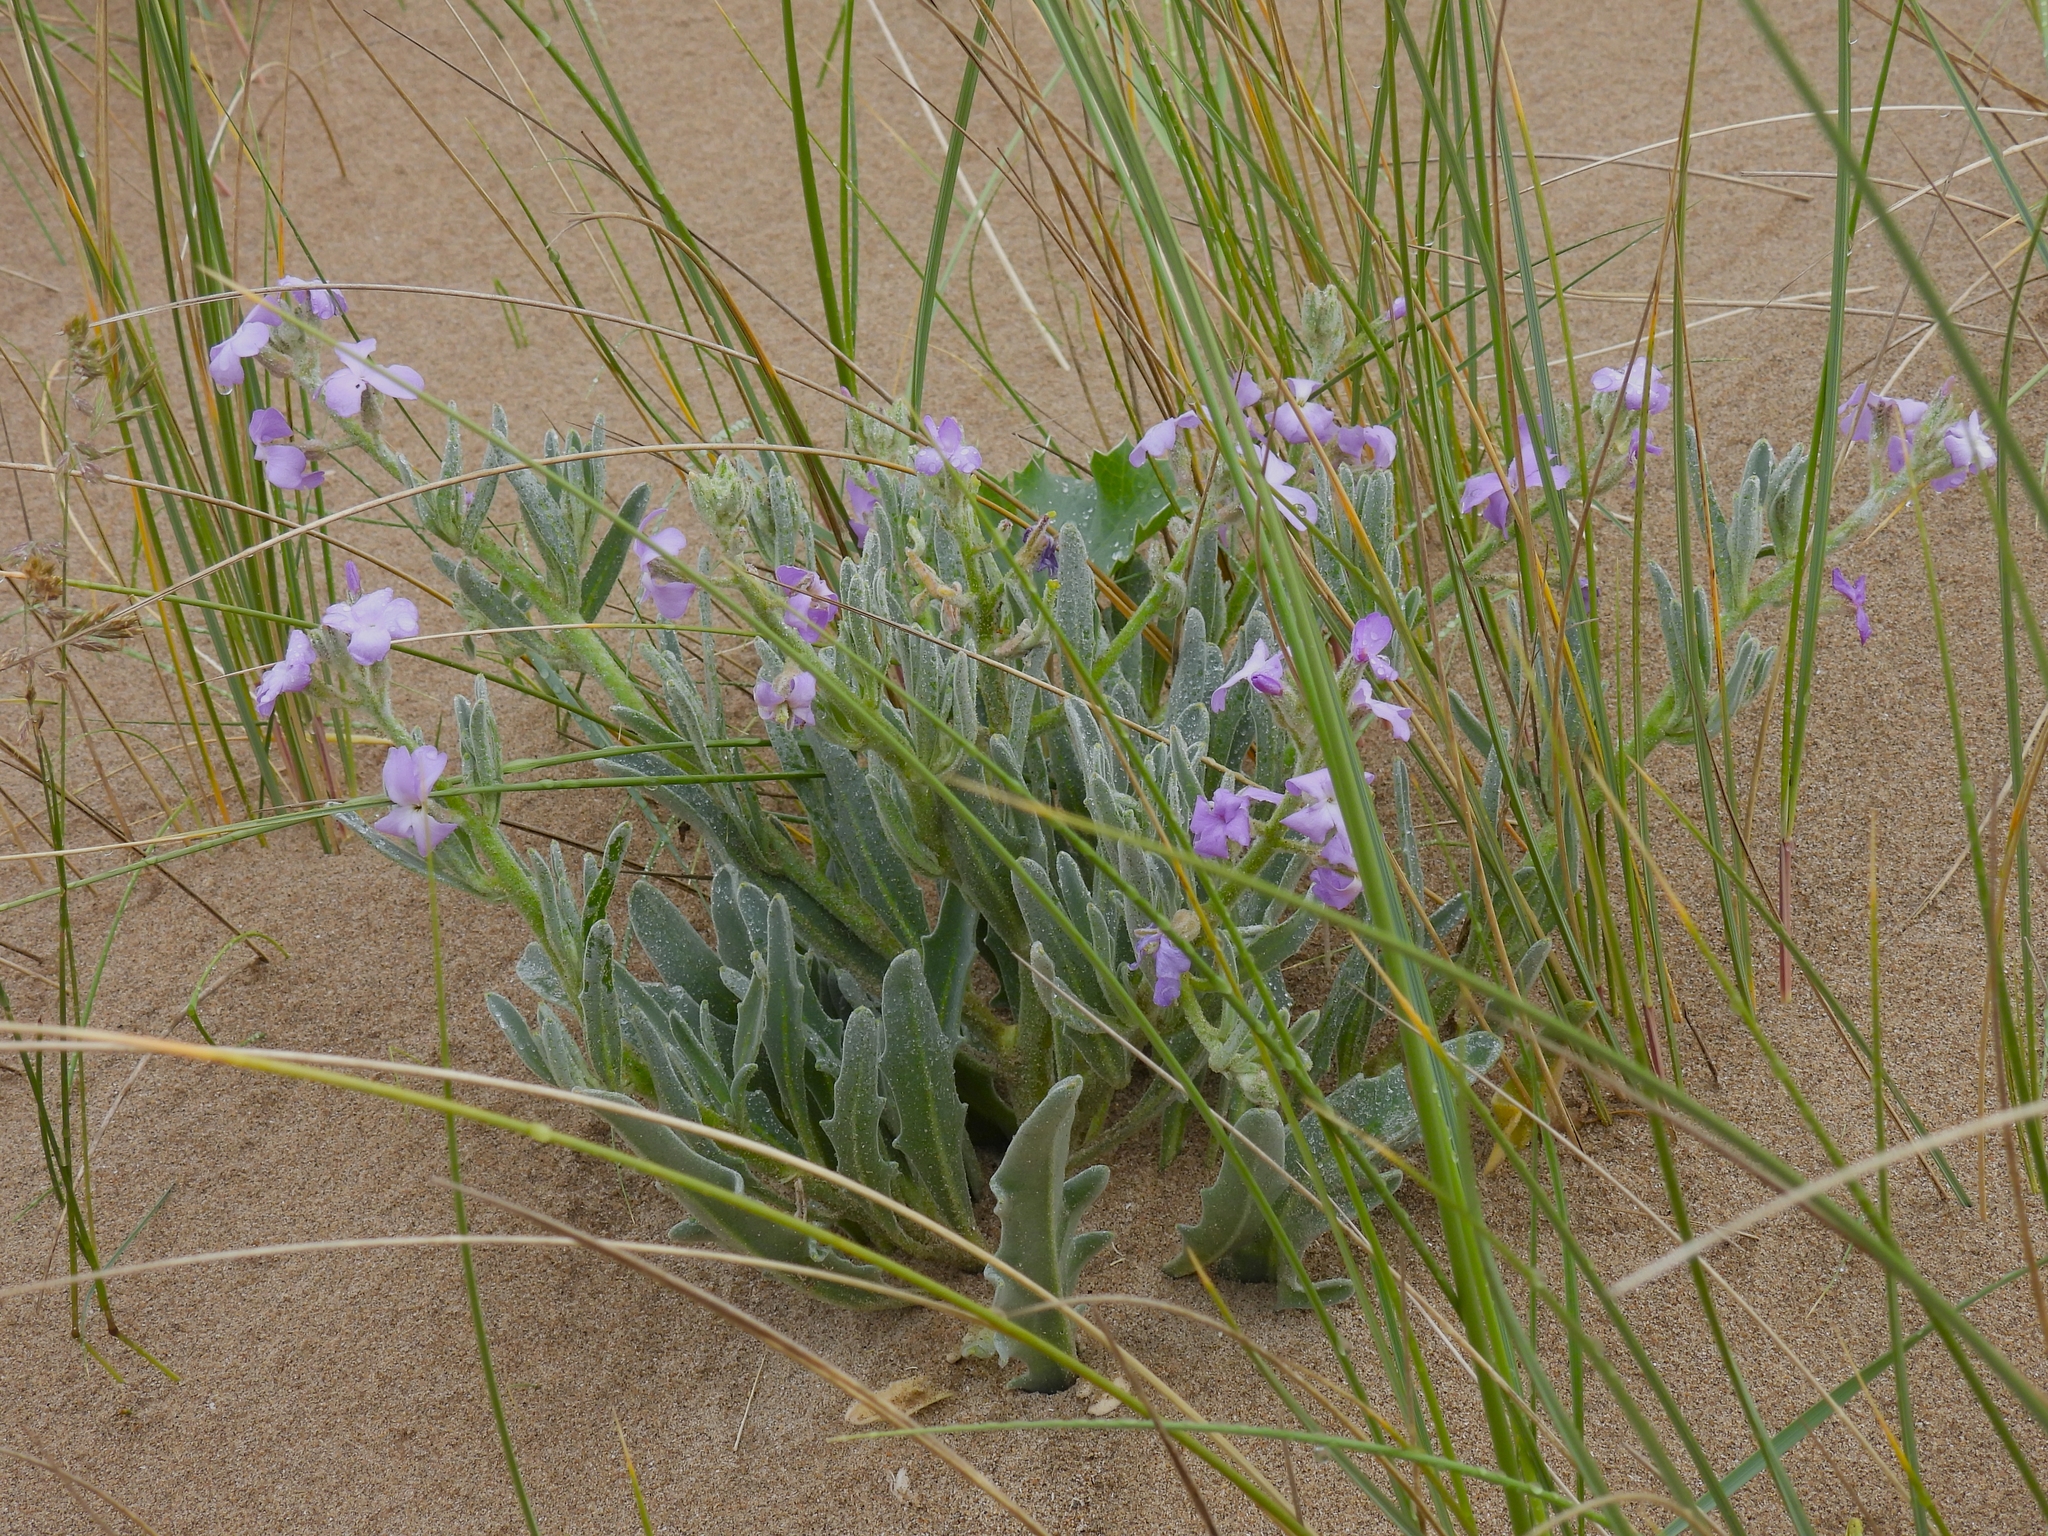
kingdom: Plantae
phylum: Tracheophyta
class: Magnoliopsida
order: Brassicales
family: Brassicaceae
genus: Matthiola
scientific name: Matthiola sinuata
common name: Sea stock
